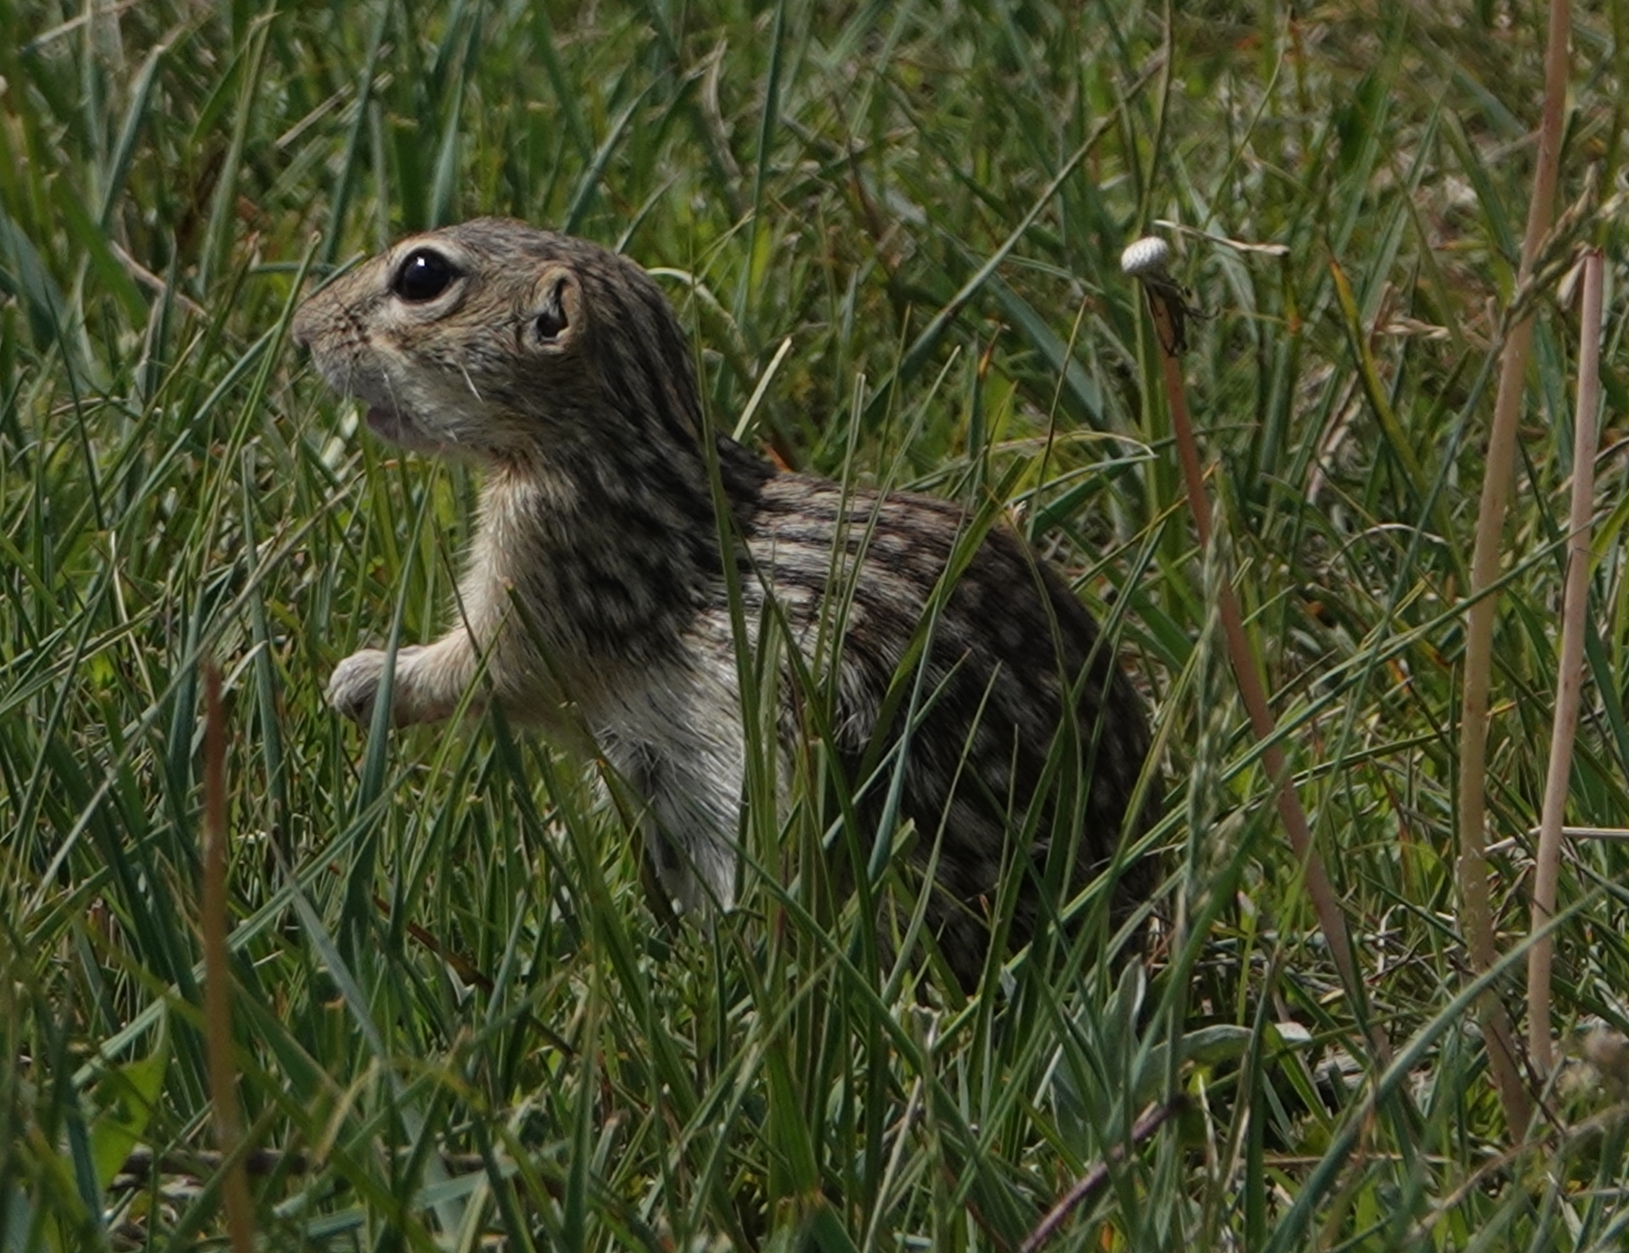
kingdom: Animalia
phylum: Chordata
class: Mammalia
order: Rodentia
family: Sciuridae
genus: Ictidomys
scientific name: Ictidomys tridecemlineatus
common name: Thirteen-lined ground squirrel
